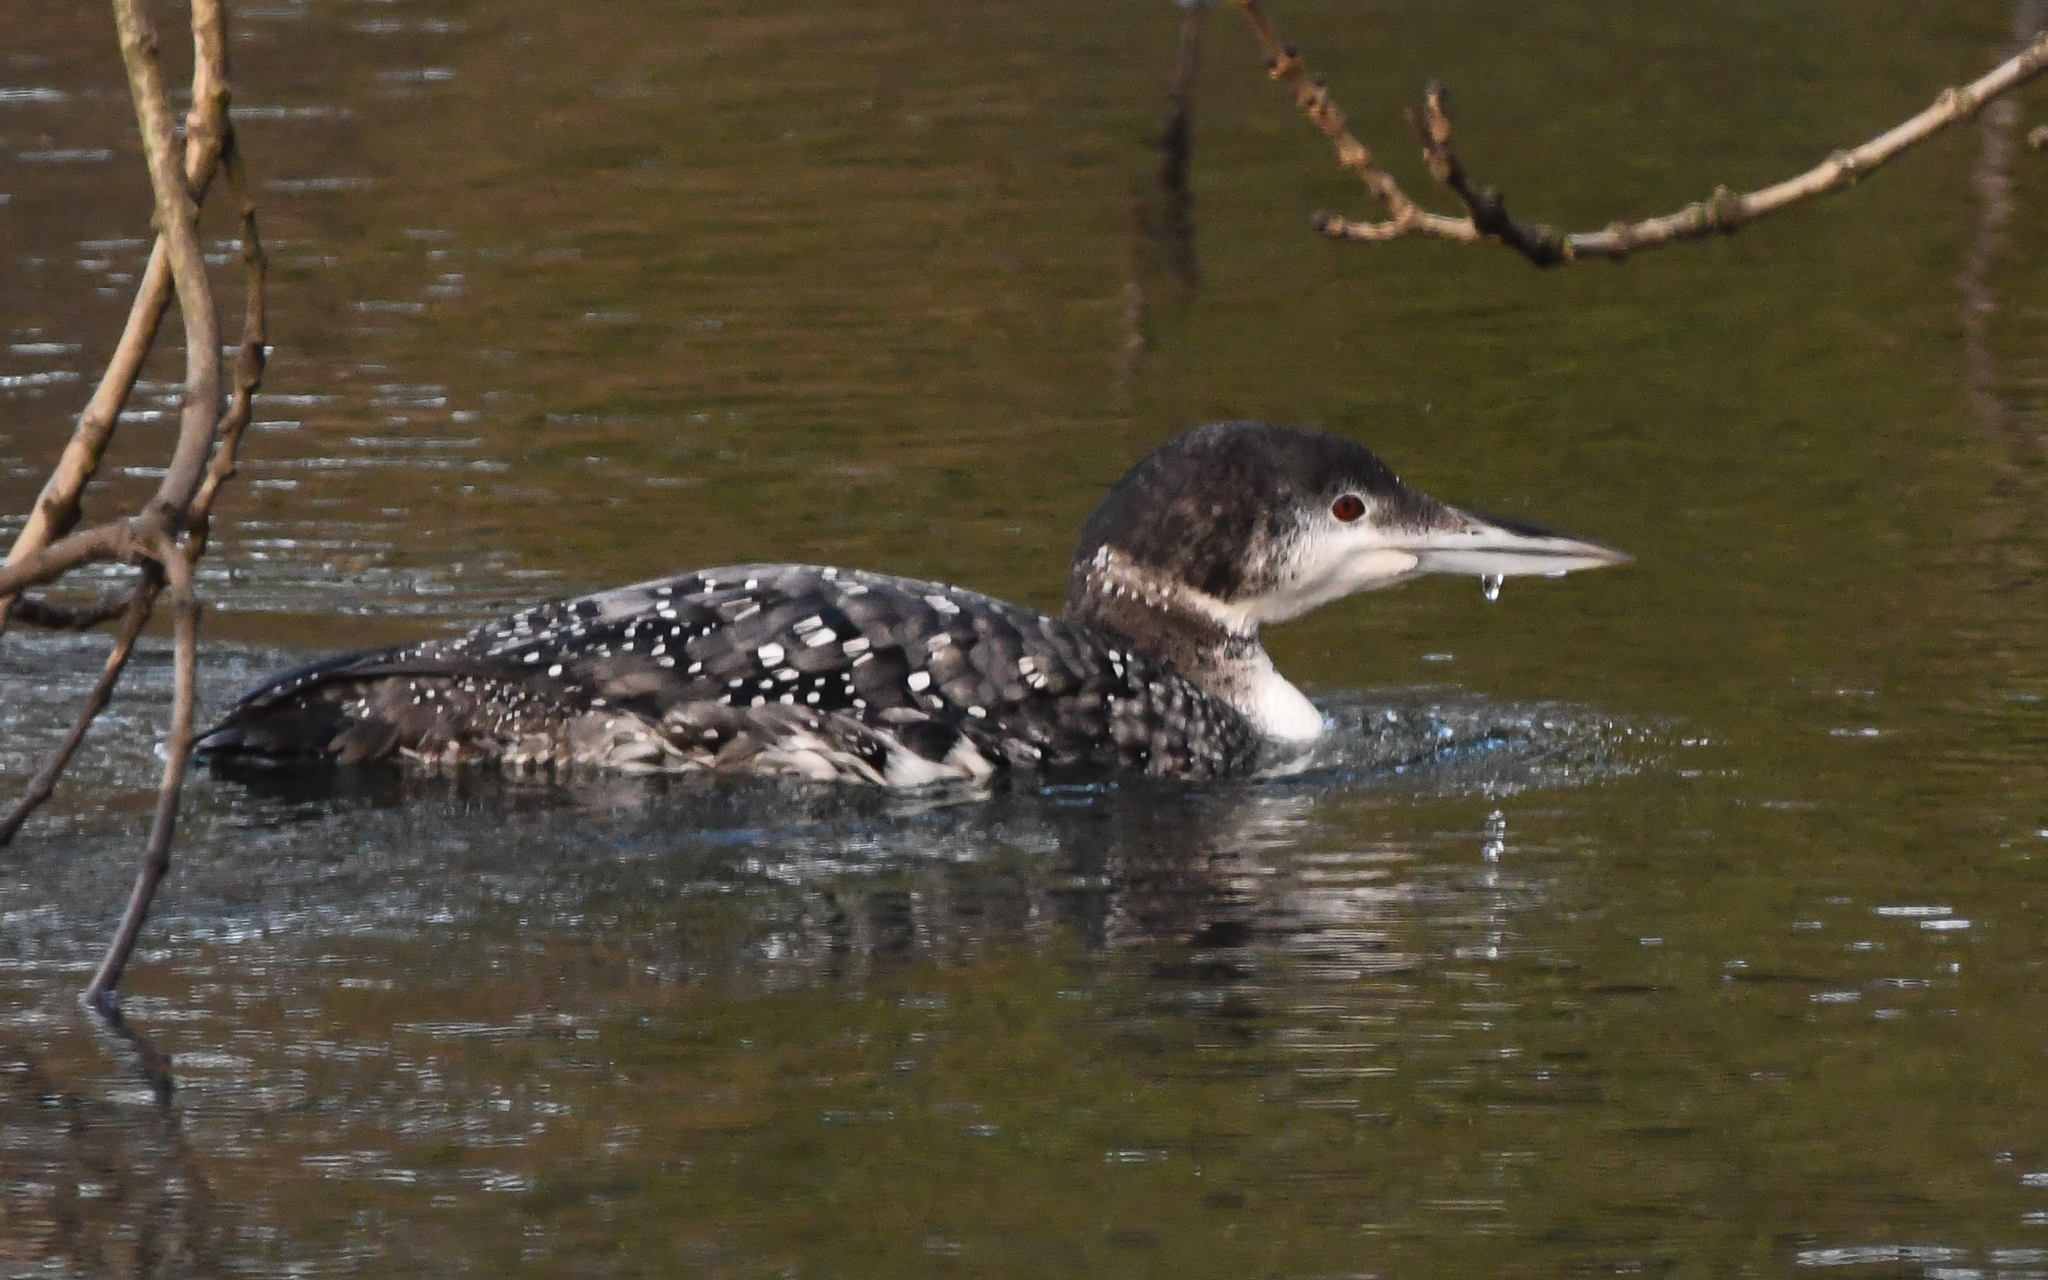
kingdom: Animalia
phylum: Chordata
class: Aves
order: Gaviiformes
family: Gaviidae
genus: Gavia
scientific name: Gavia immer
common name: Common loon
